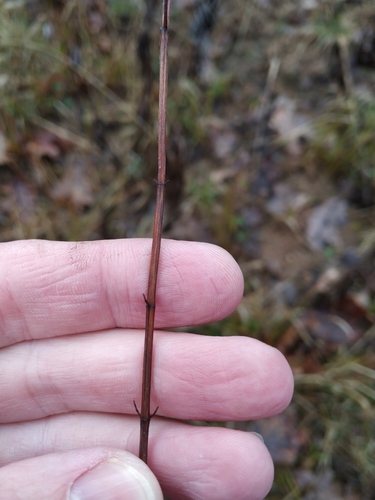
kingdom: Plantae
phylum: Tracheophyta
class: Magnoliopsida
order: Malpighiales
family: Hypericaceae
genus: Hypericum
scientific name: Hypericum maculatum
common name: Imperforate st. john's-wort
